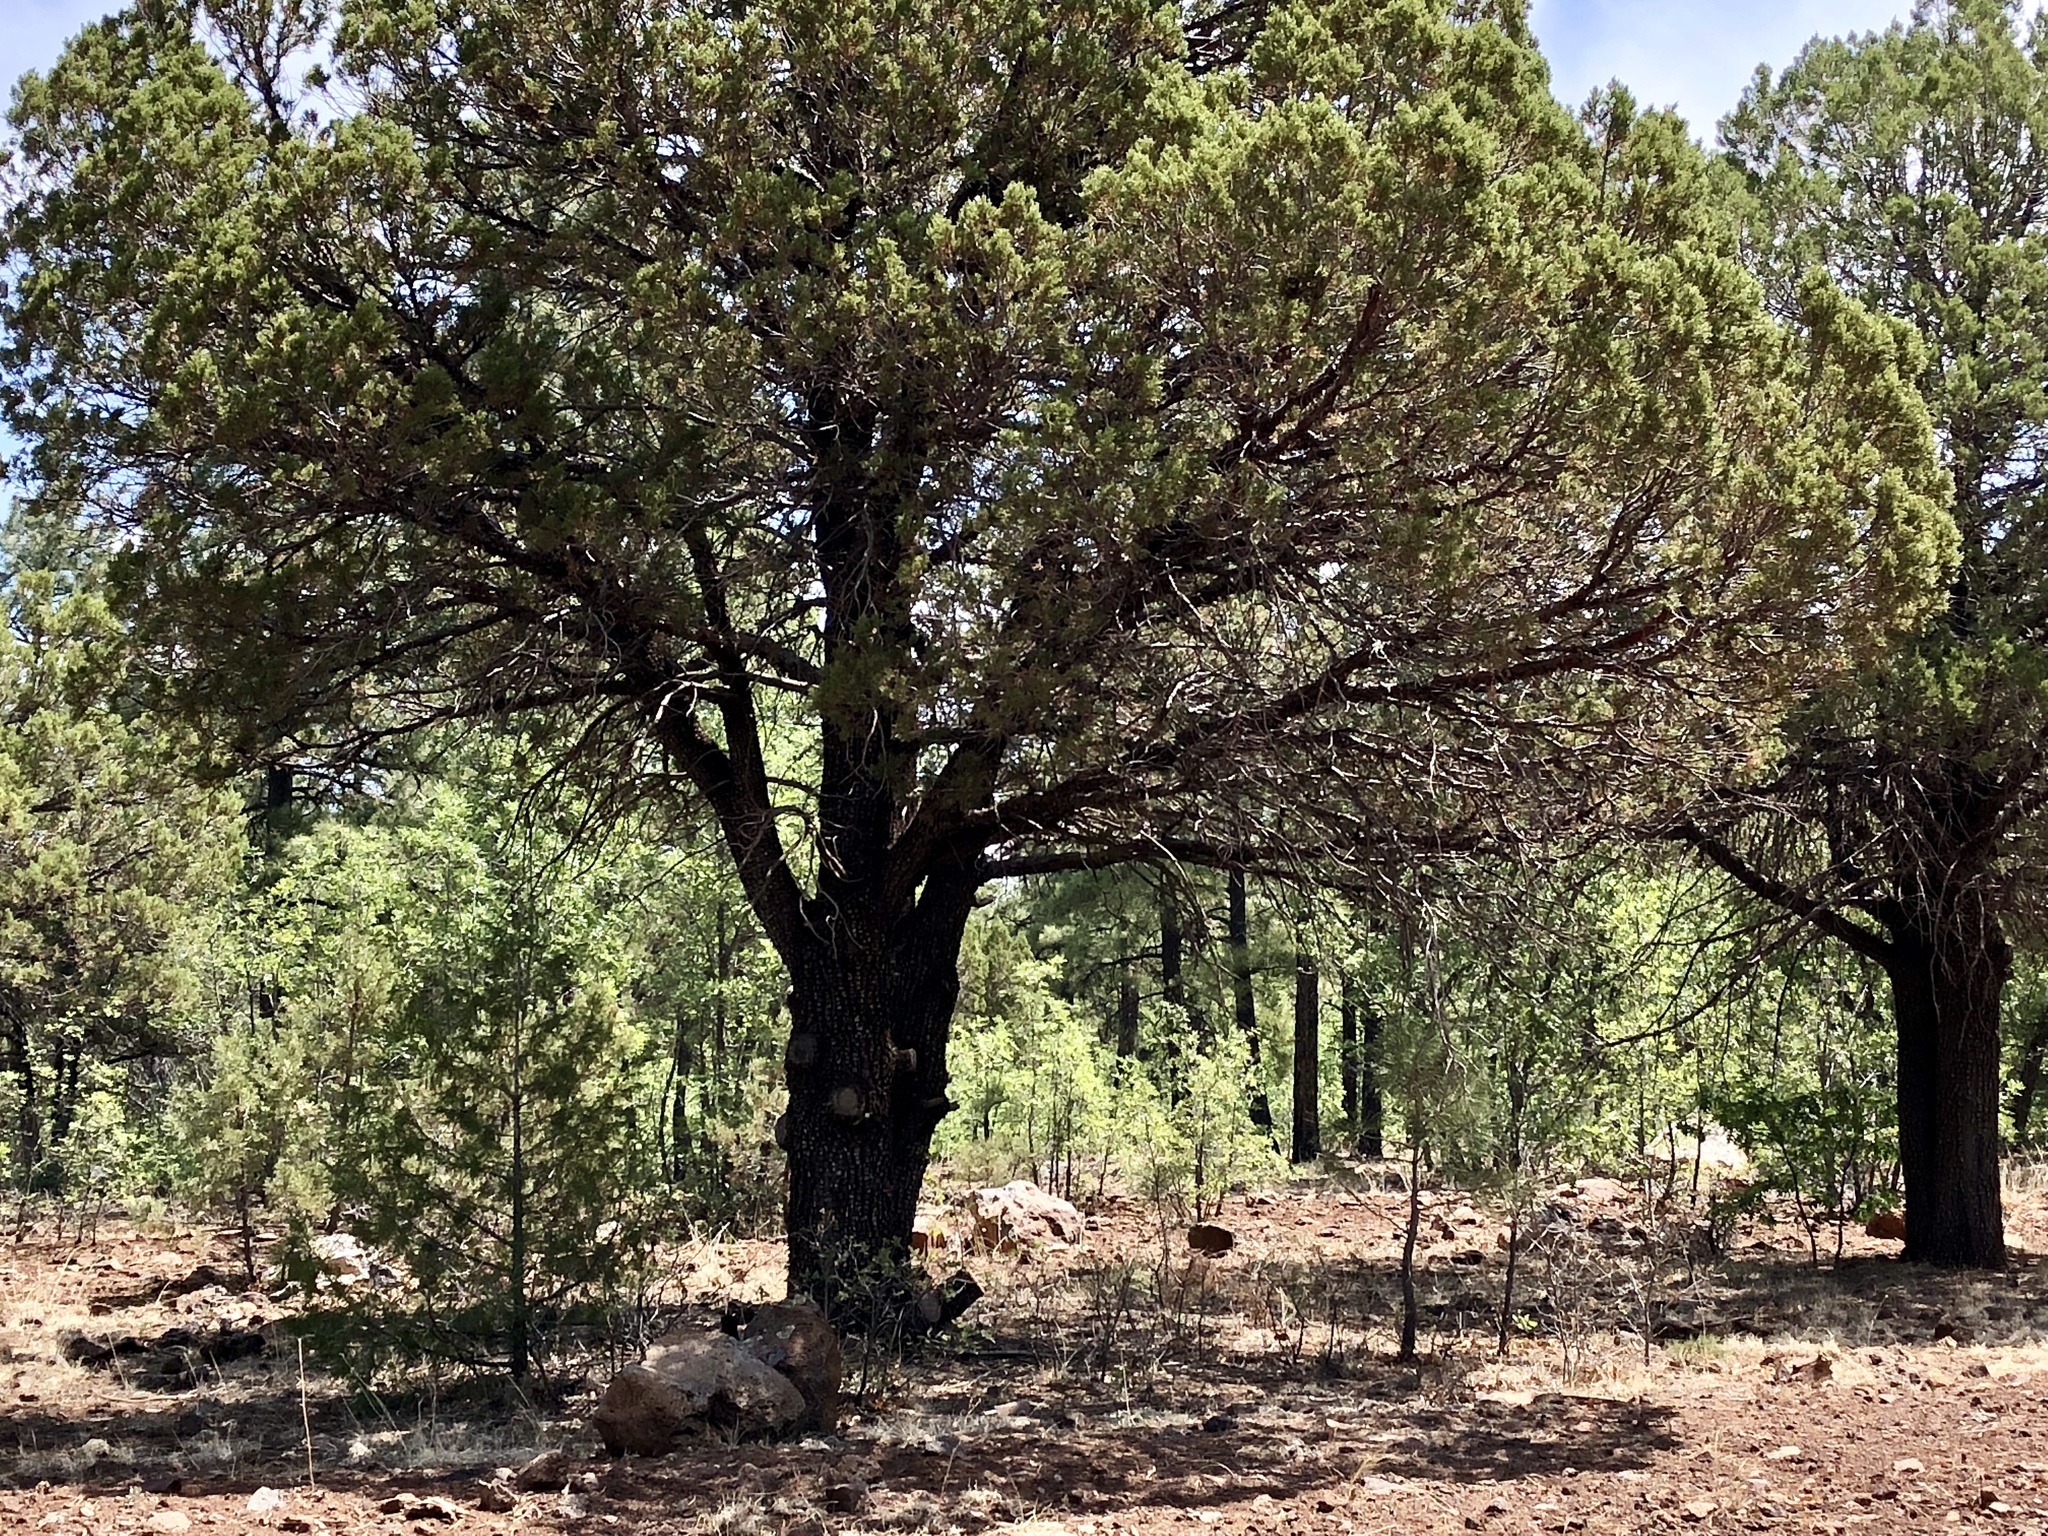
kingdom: Plantae
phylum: Tracheophyta
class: Pinopsida
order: Pinales
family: Cupressaceae
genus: Juniperus
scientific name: Juniperus deppeana
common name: Alligator juniper
